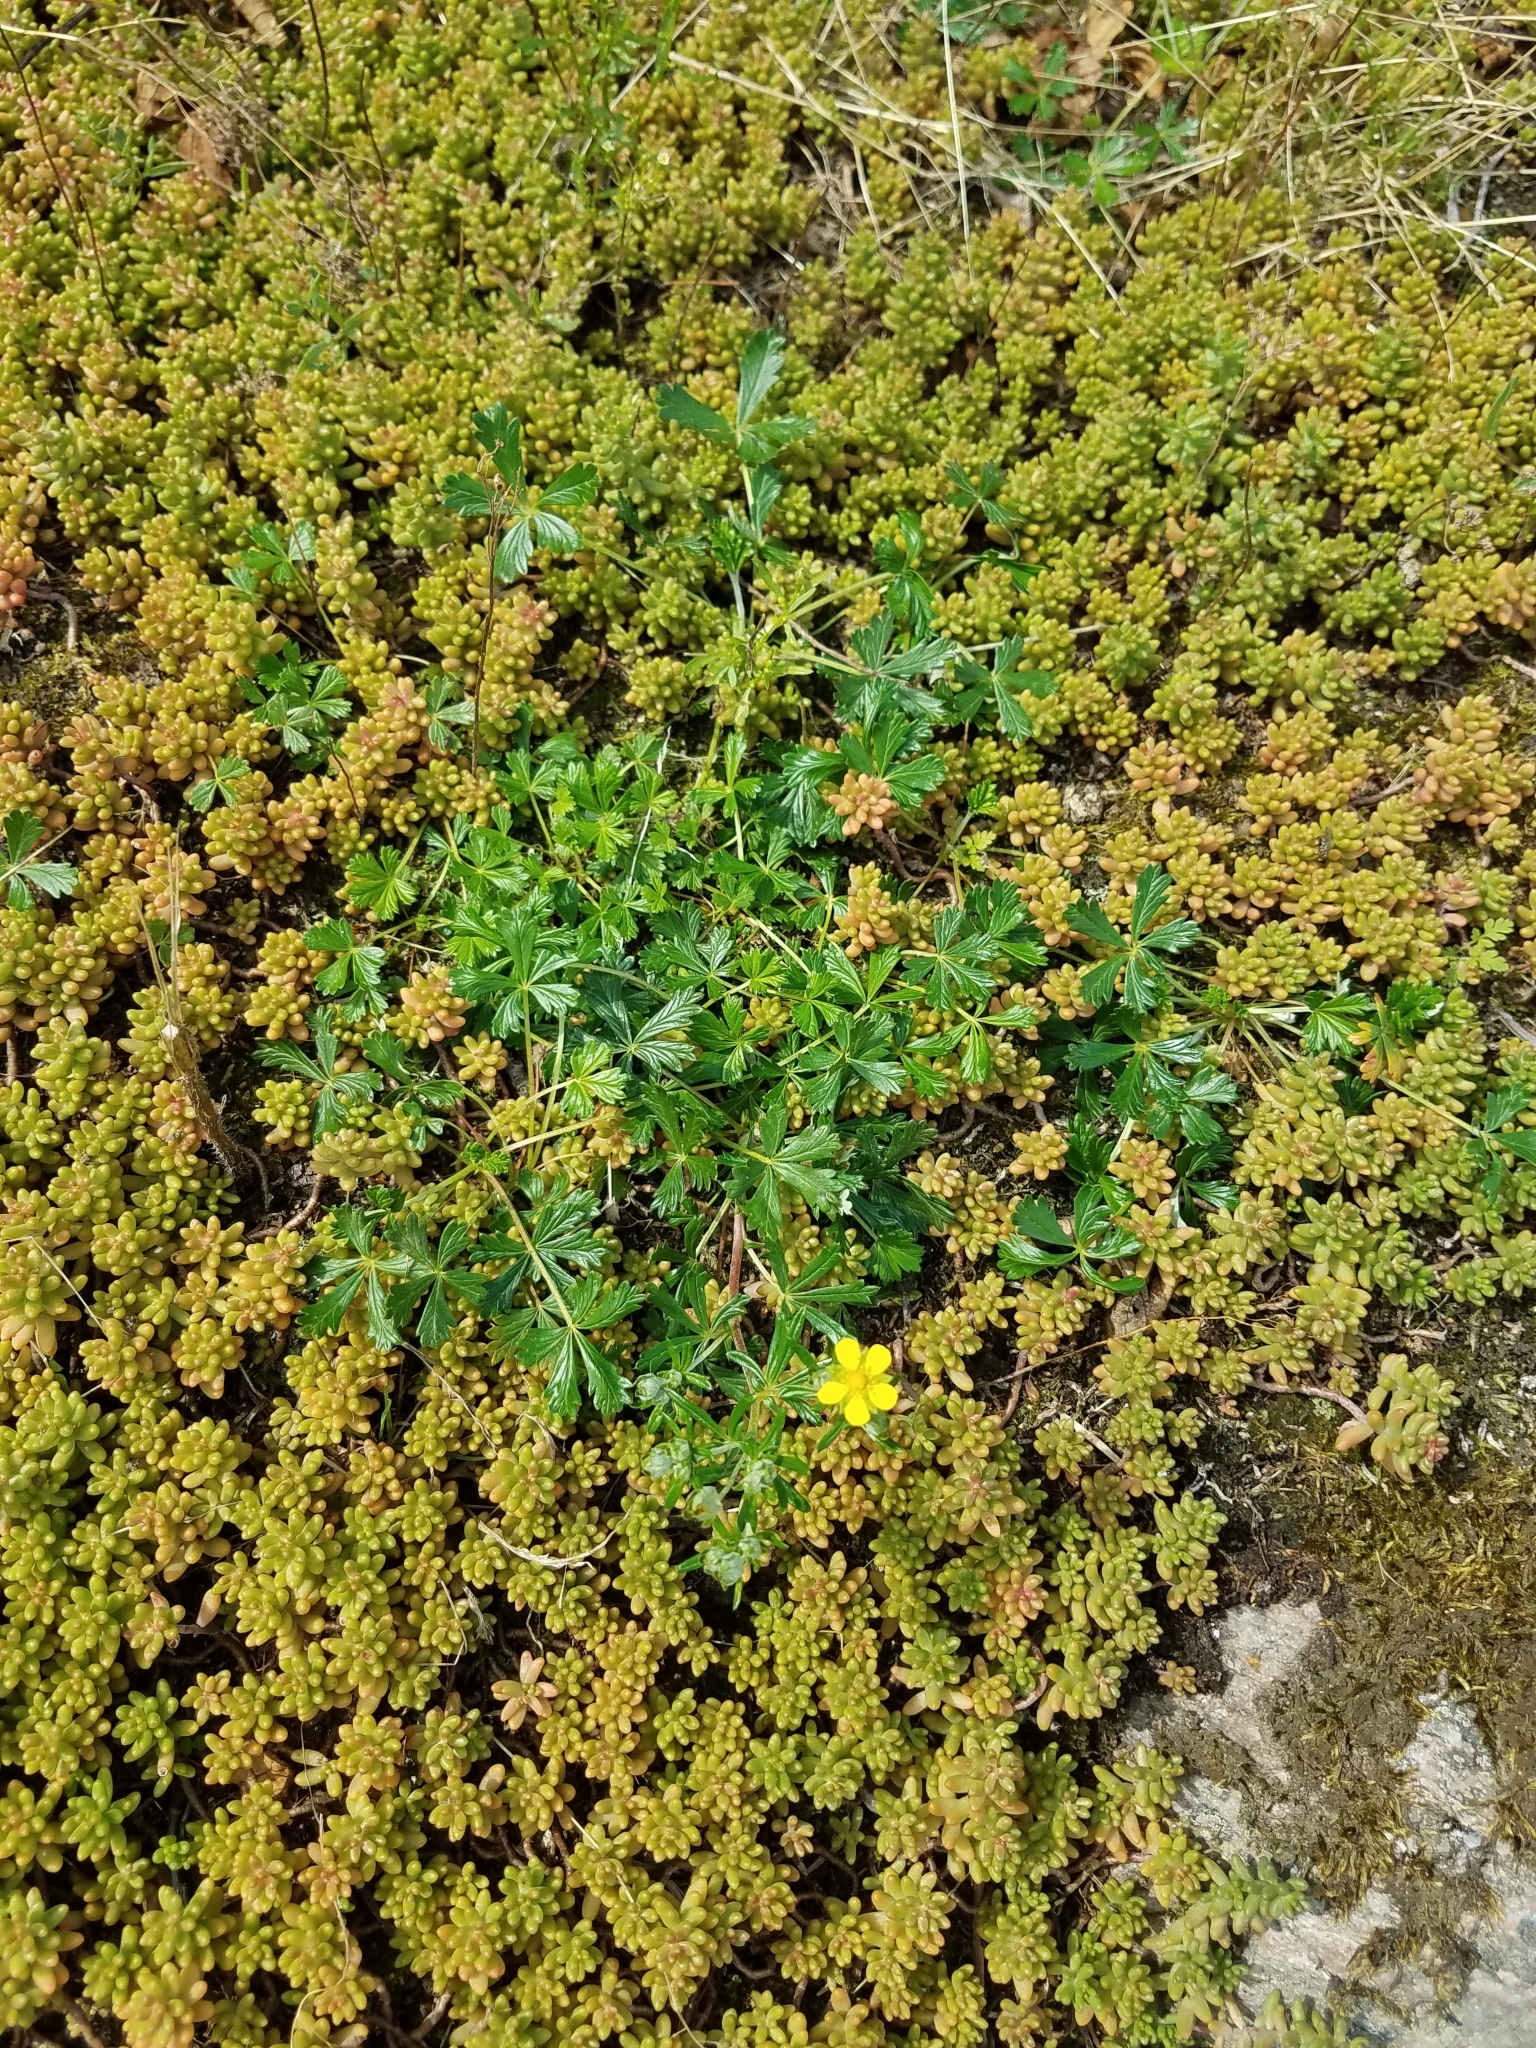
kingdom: Plantae
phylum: Tracheophyta
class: Magnoliopsida
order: Rosales
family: Rosaceae
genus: Potentilla
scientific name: Potentilla argentea
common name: Hoary cinquefoil
